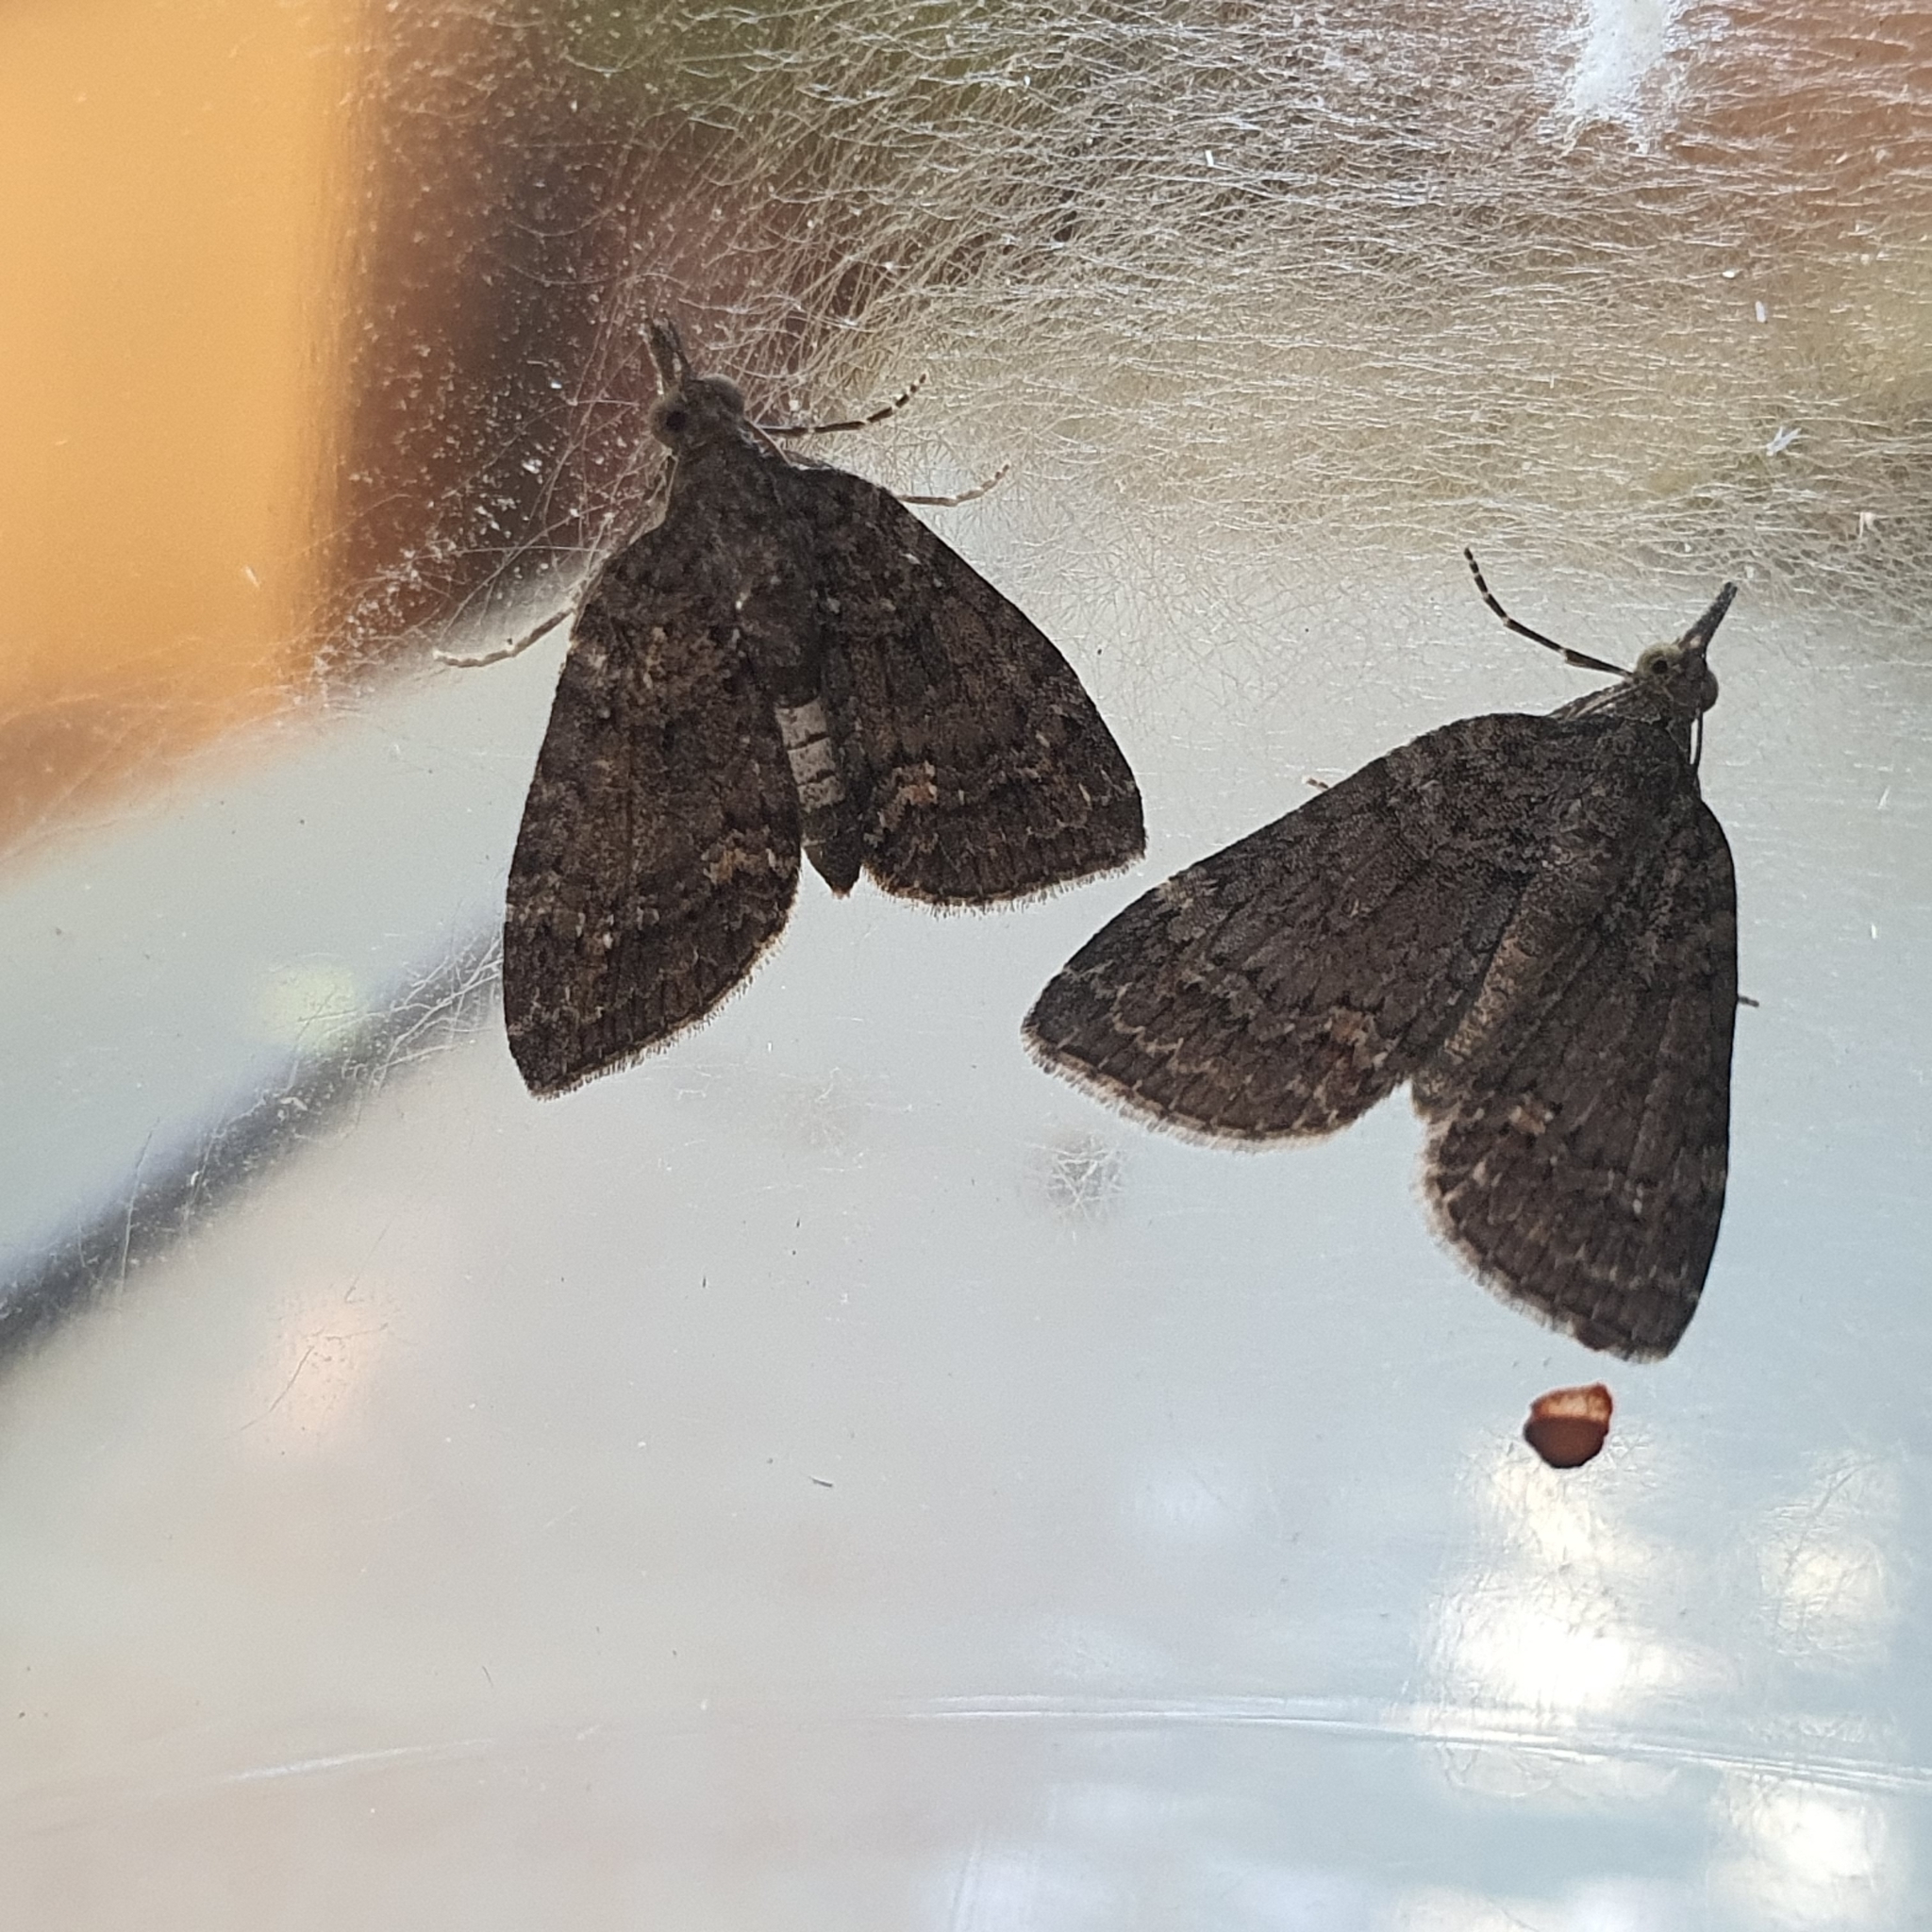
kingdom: Animalia
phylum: Arthropoda
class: Insecta
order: Lepidoptera
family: Geometridae
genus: Microdes
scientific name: Microdes squamulata
